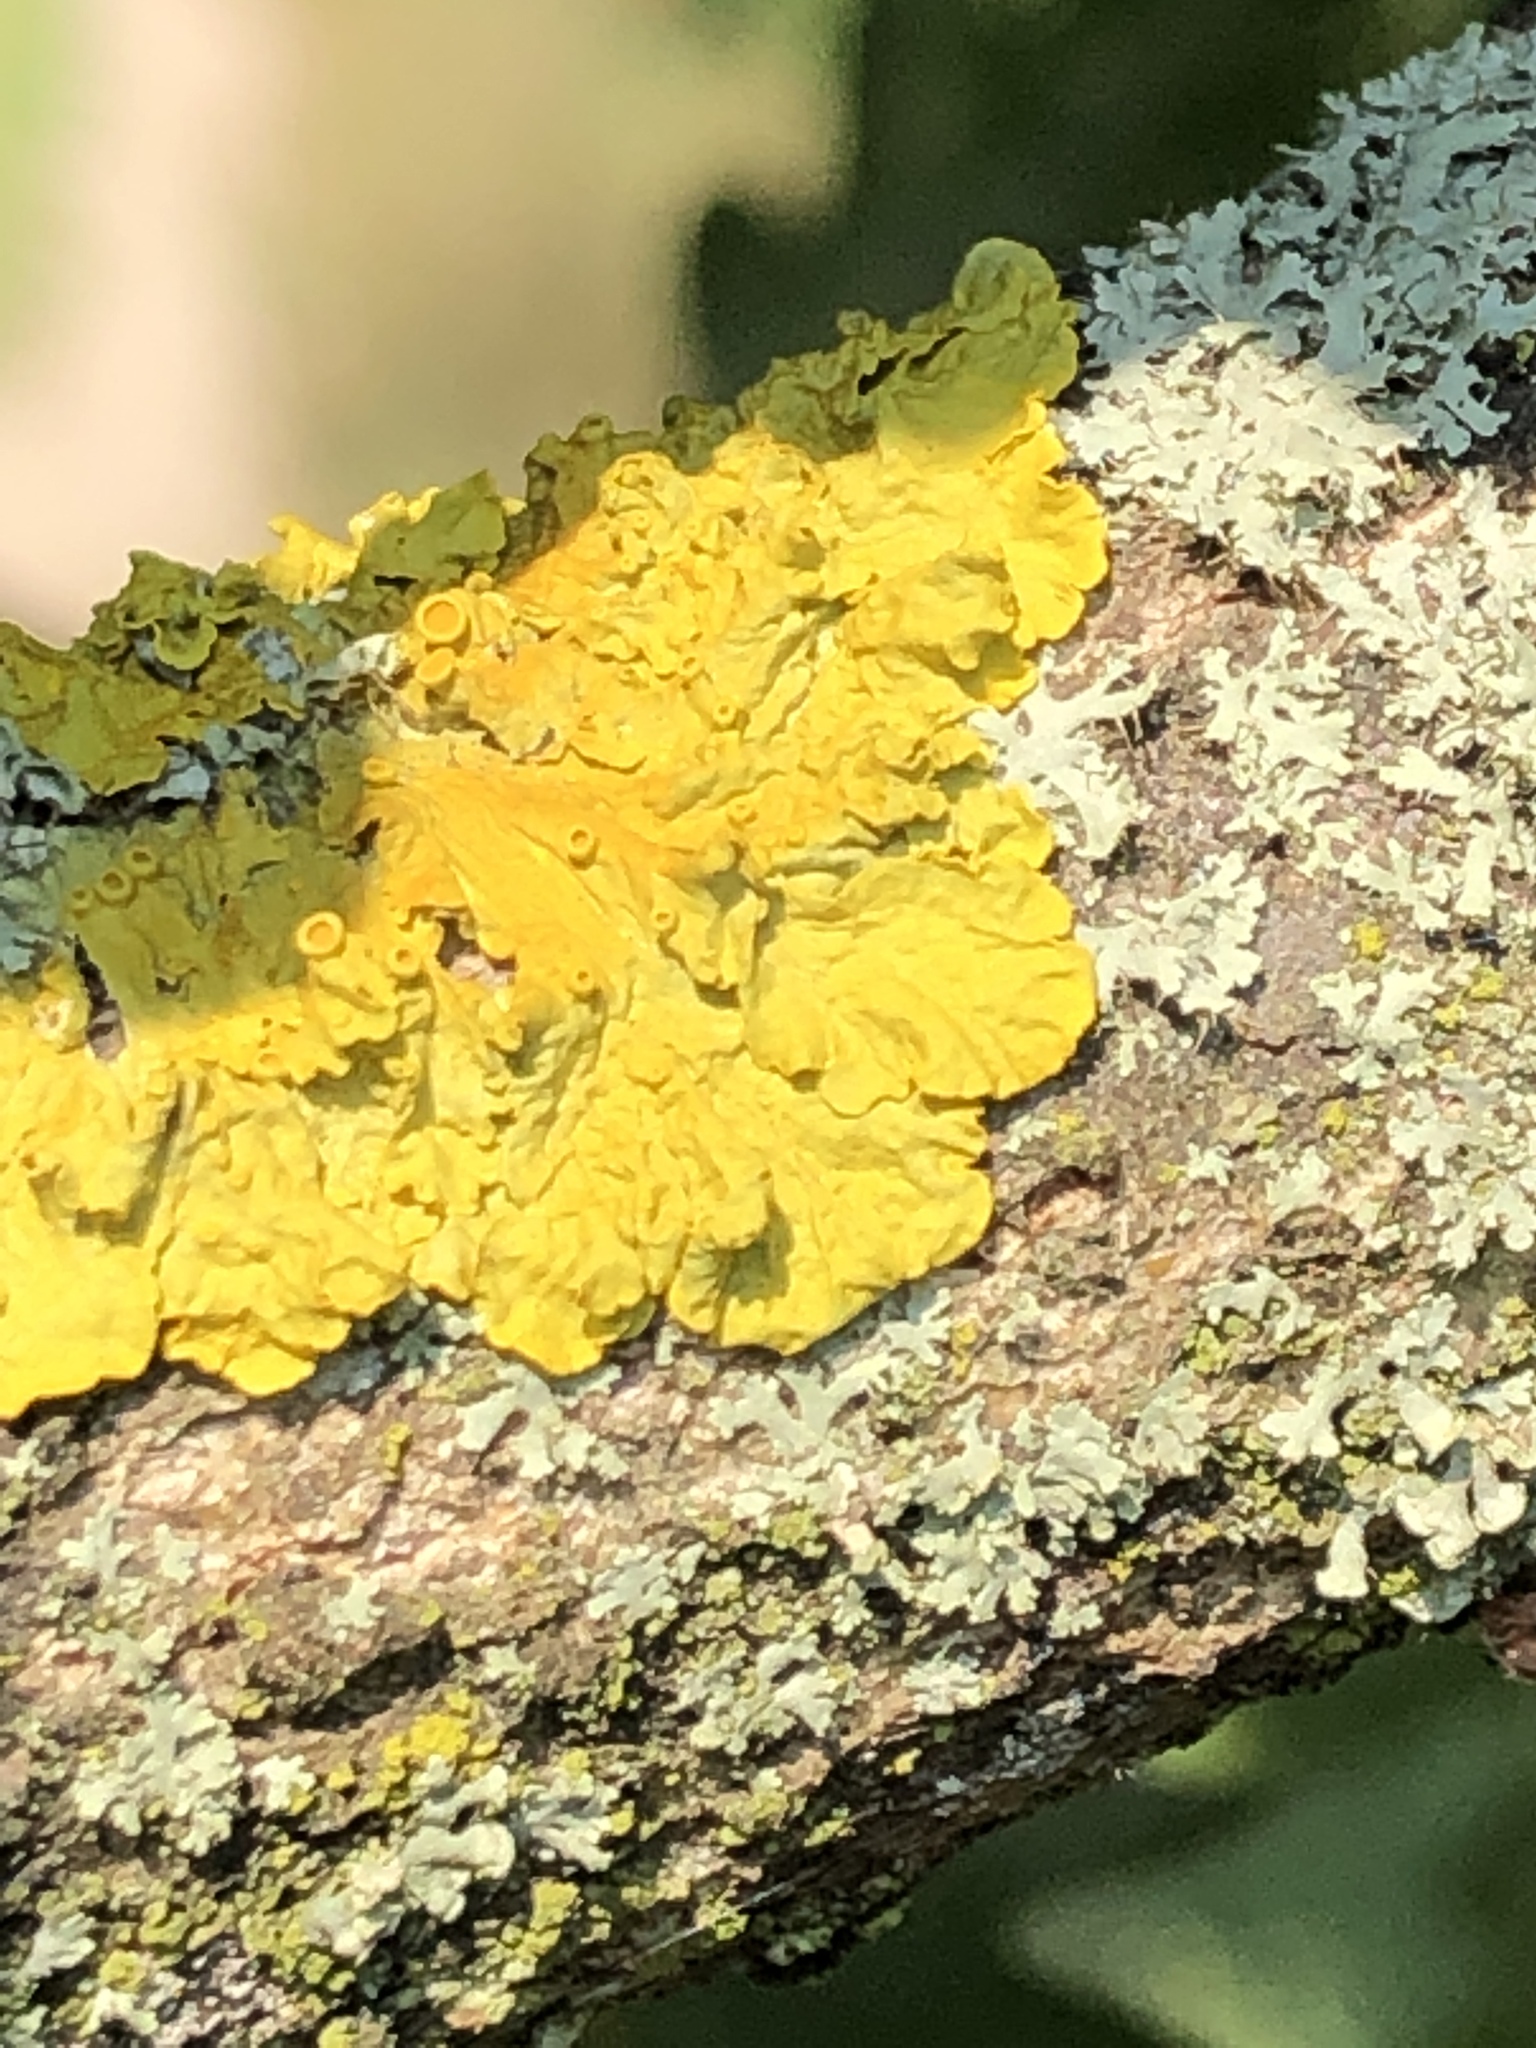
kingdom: Fungi
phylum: Ascomycota
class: Lecanoromycetes
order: Teloschistales
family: Teloschistaceae
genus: Xanthoria
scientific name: Xanthoria parietina
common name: Common orange lichen
